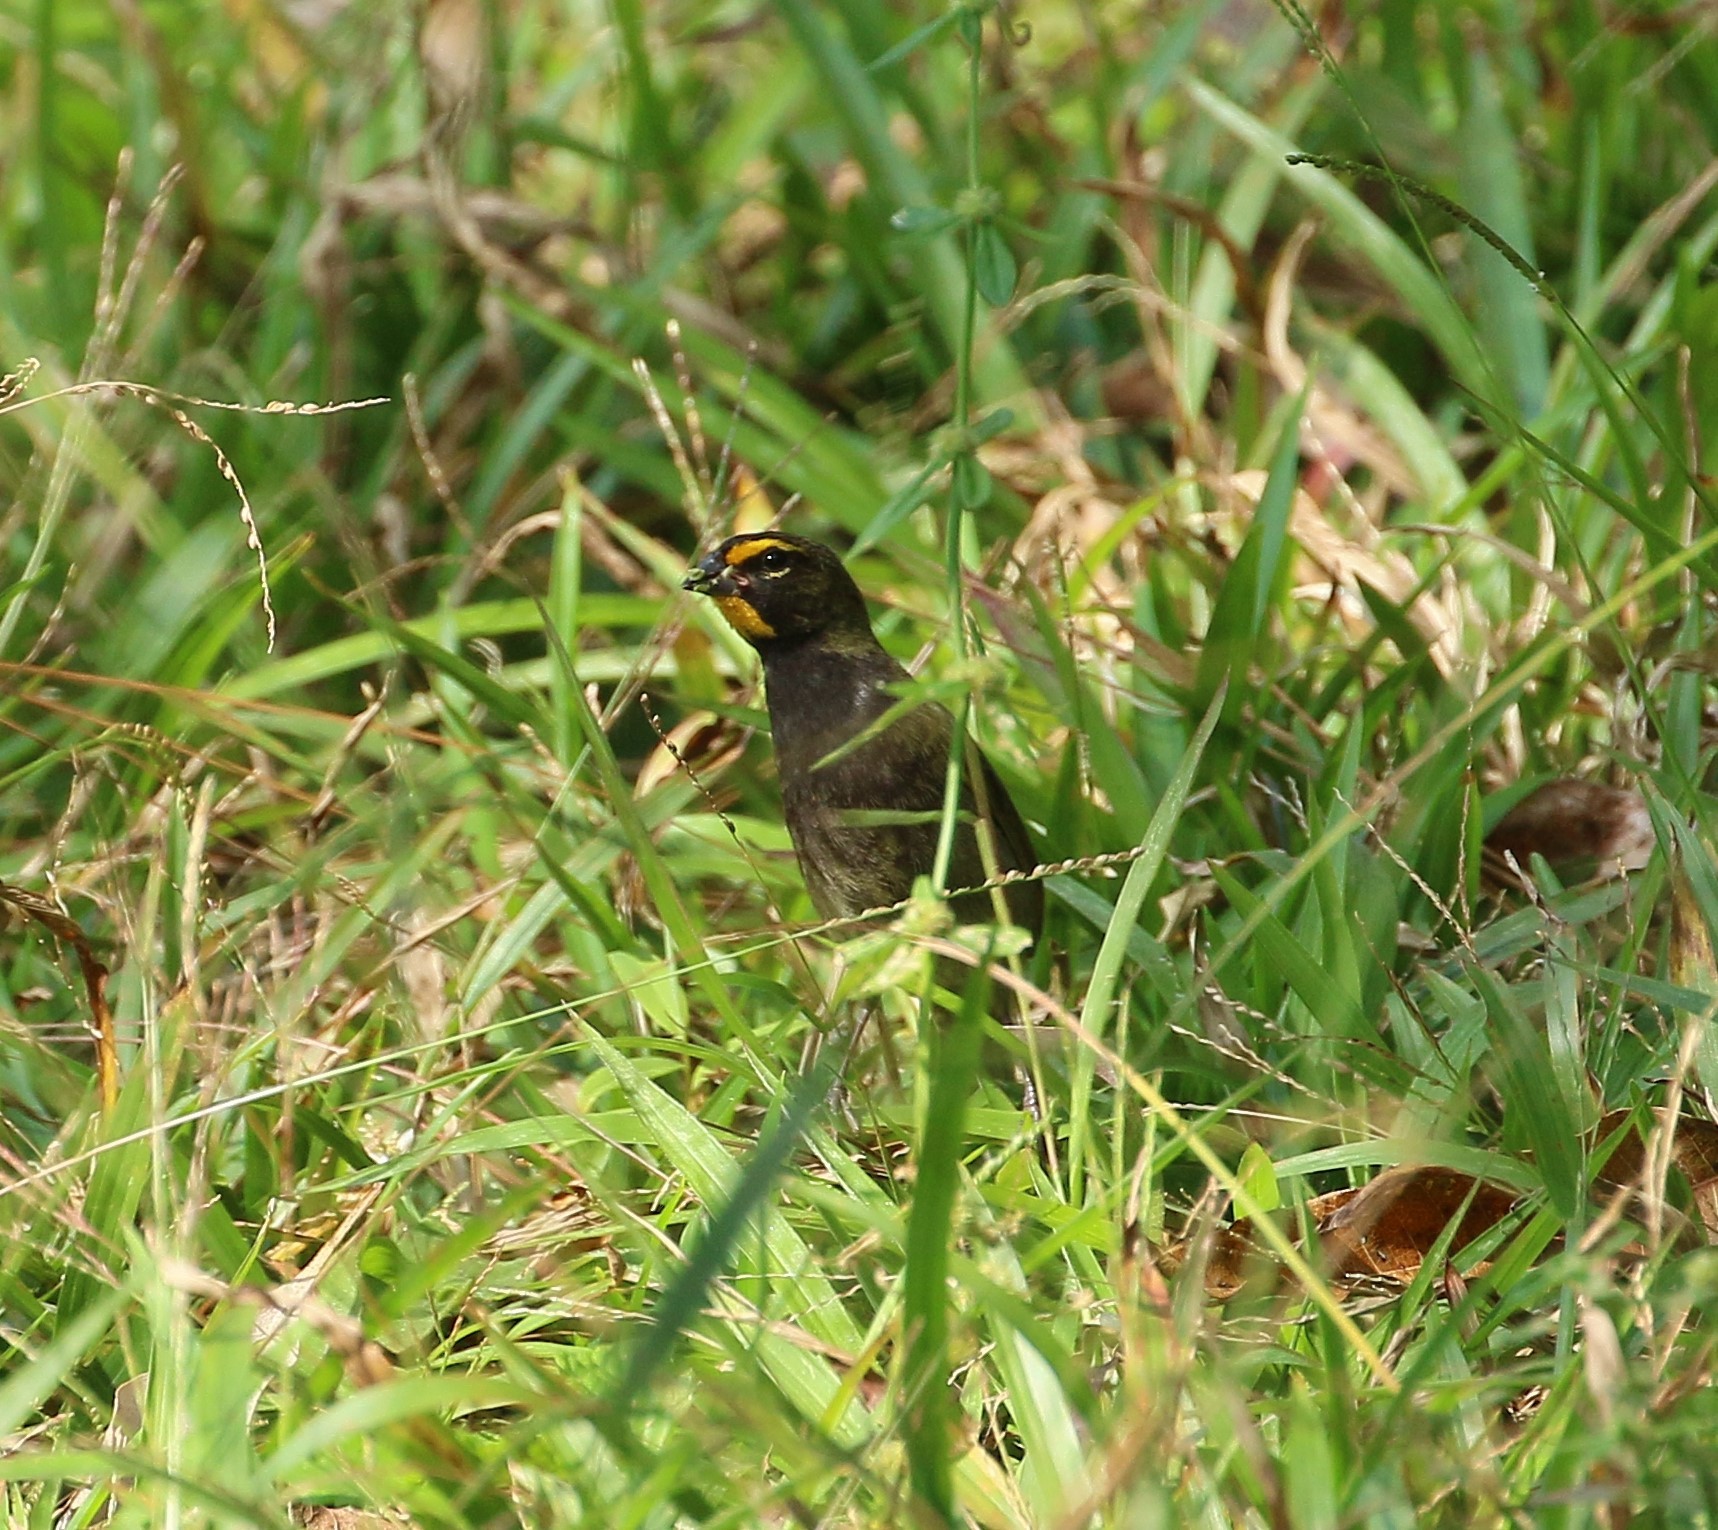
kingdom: Animalia
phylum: Chordata
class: Aves
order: Passeriformes
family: Thraupidae
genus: Tiaris
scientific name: Tiaris olivaceus
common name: Yellow-faced grassquit
